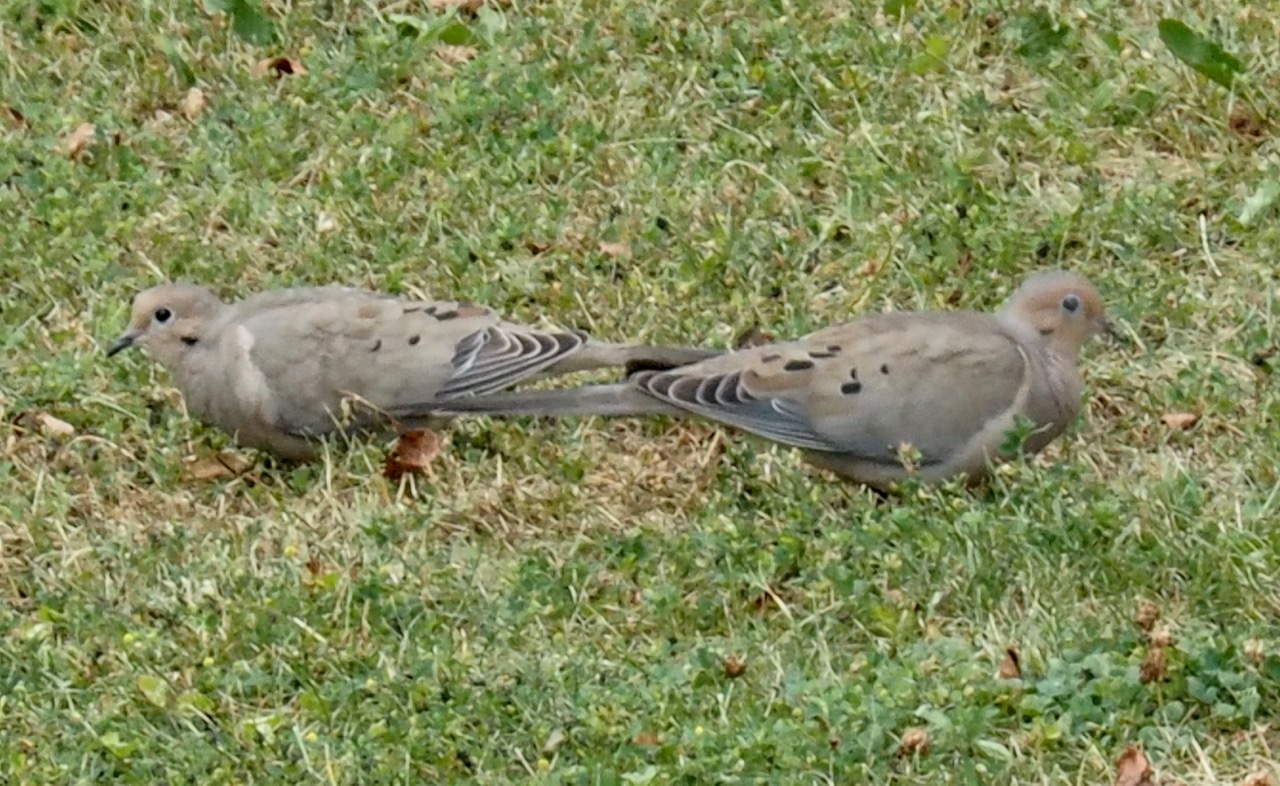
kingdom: Animalia
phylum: Chordata
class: Aves
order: Columbiformes
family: Columbidae
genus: Zenaida
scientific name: Zenaida macroura
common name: Mourning dove
